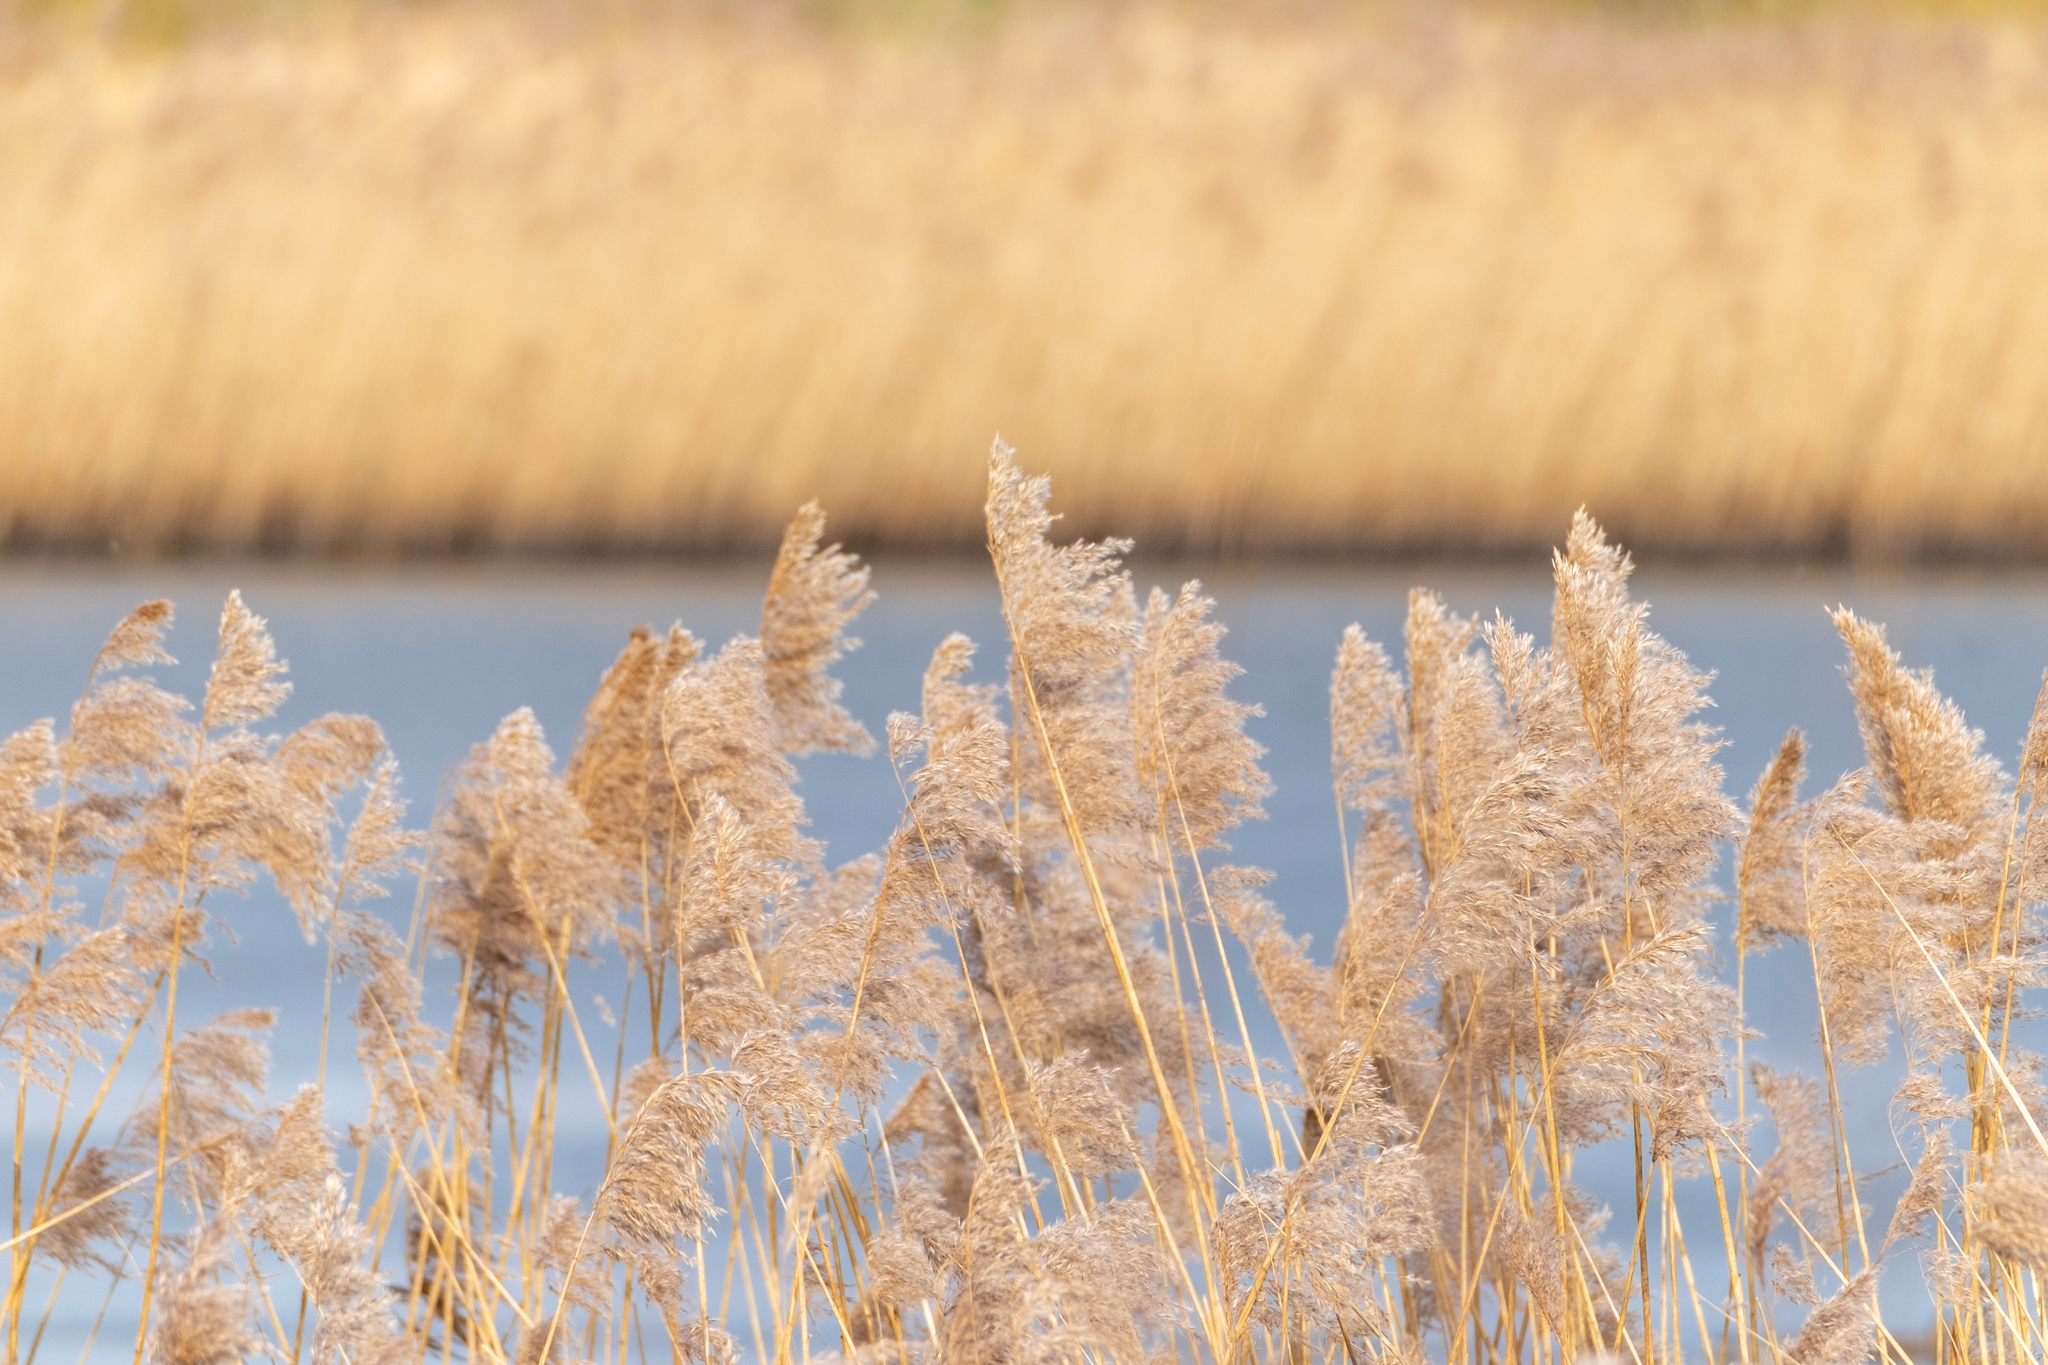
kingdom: Plantae
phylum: Tracheophyta
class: Liliopsida
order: Poales
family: Poaceae
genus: Phragmites
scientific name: Phragmites australis
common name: Common reed
